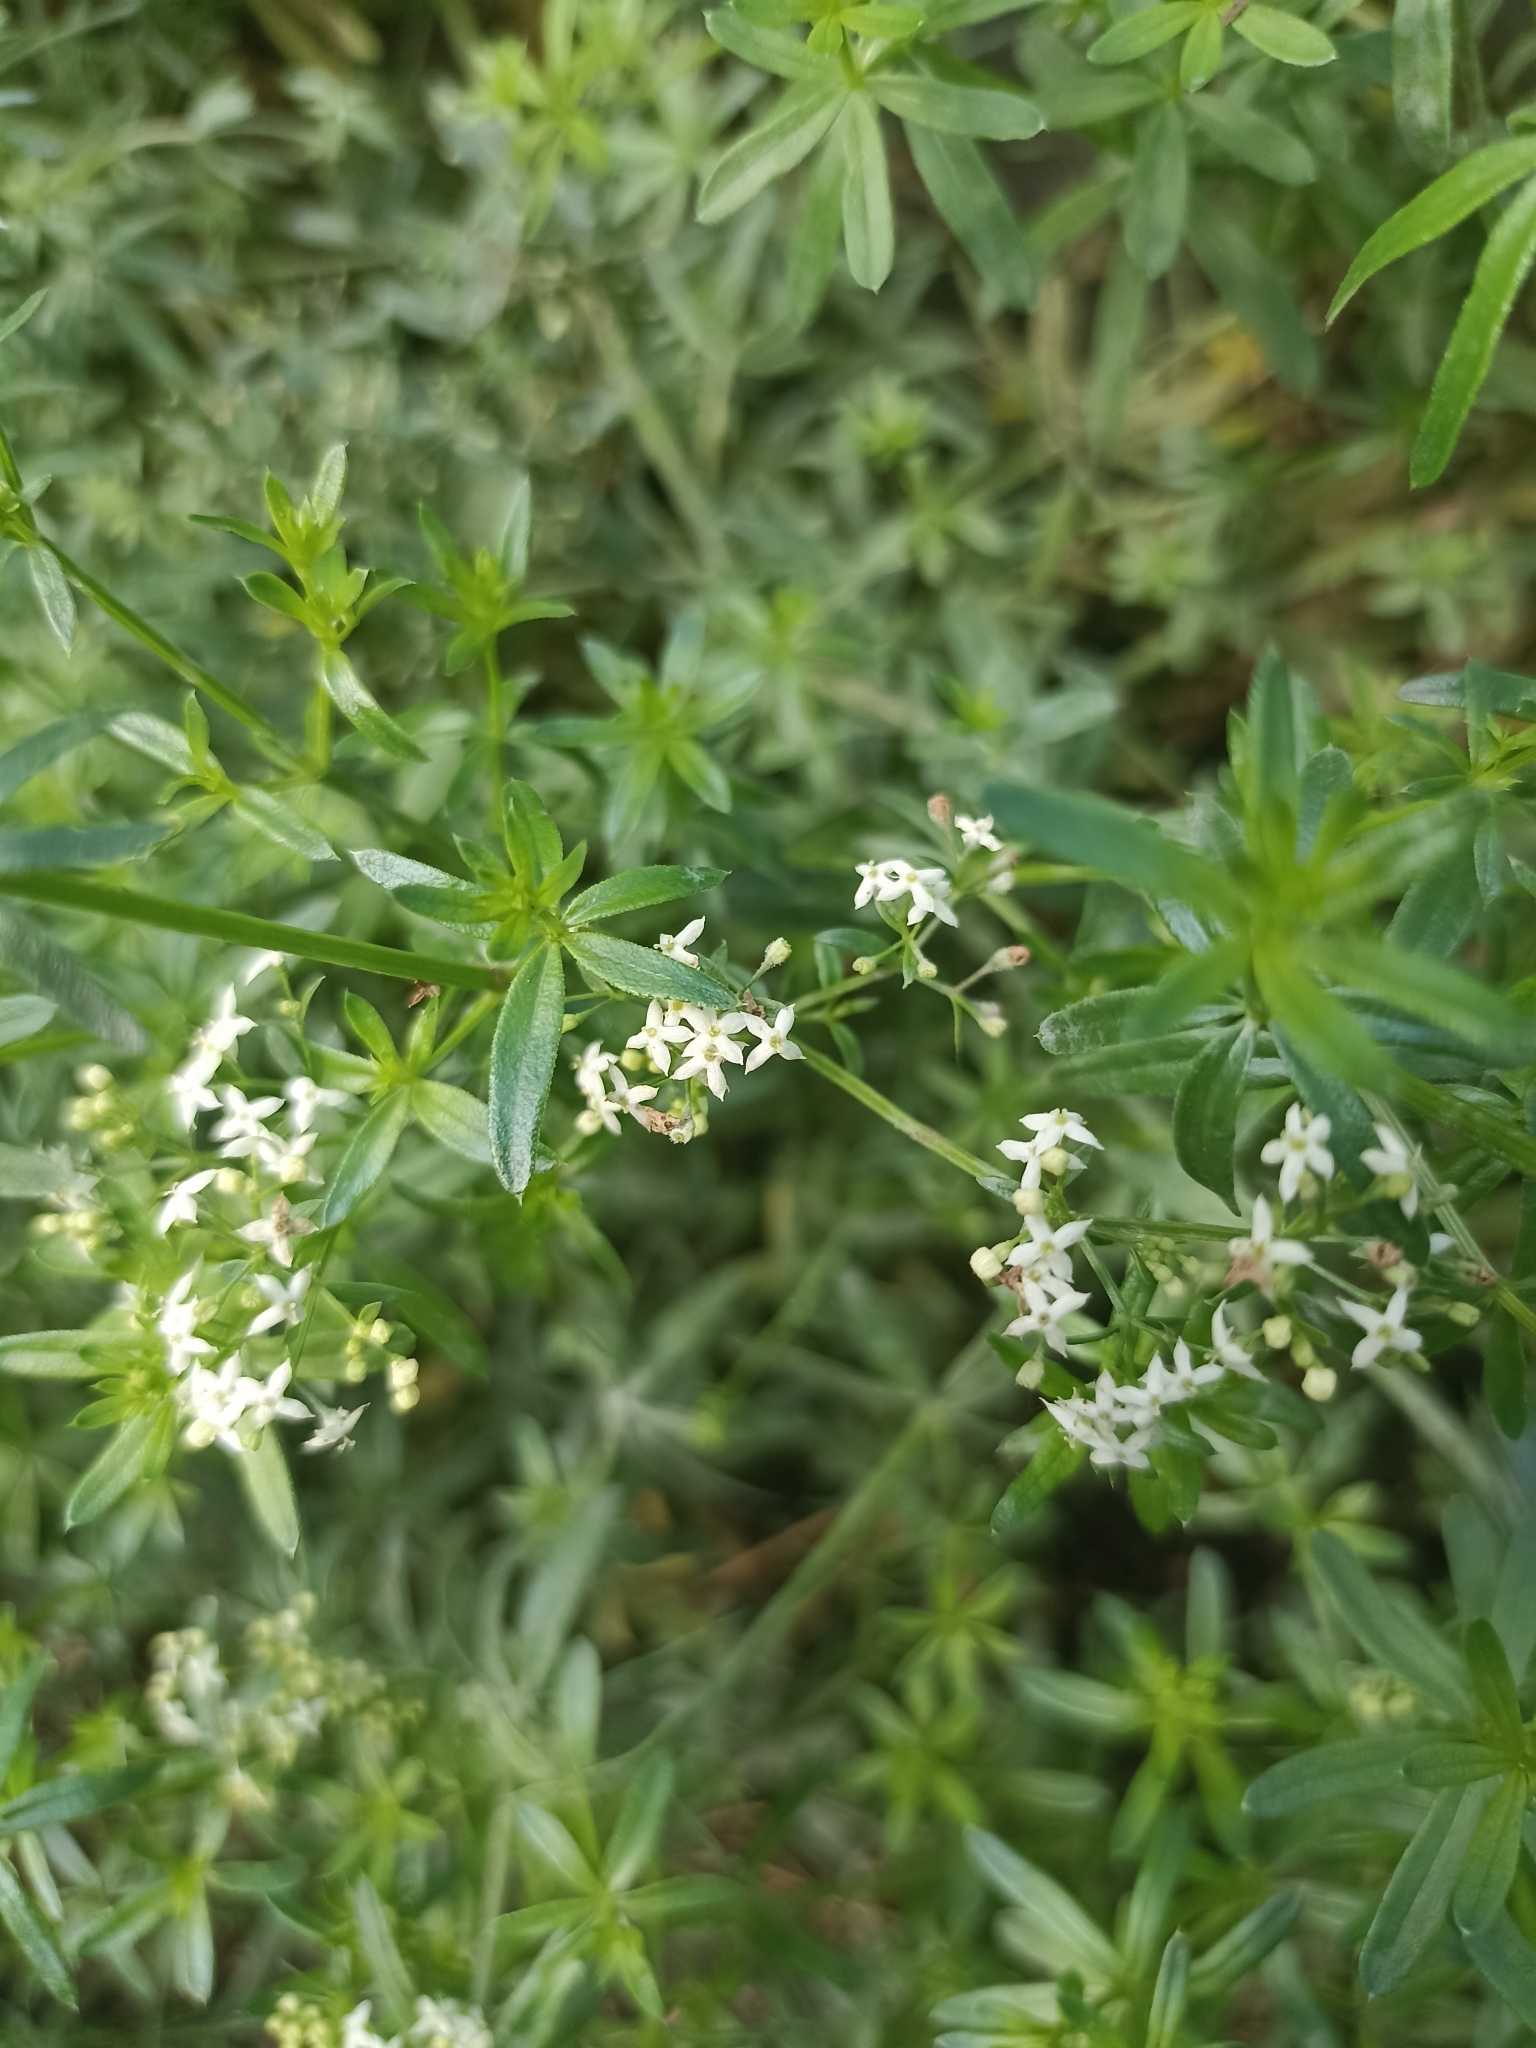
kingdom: Plantae
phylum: Tracheophyta
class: Magnoliopsida
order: Gentianales
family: Rubiaceae
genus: Galium
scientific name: Galium mollugo
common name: Hedge bedstraw
